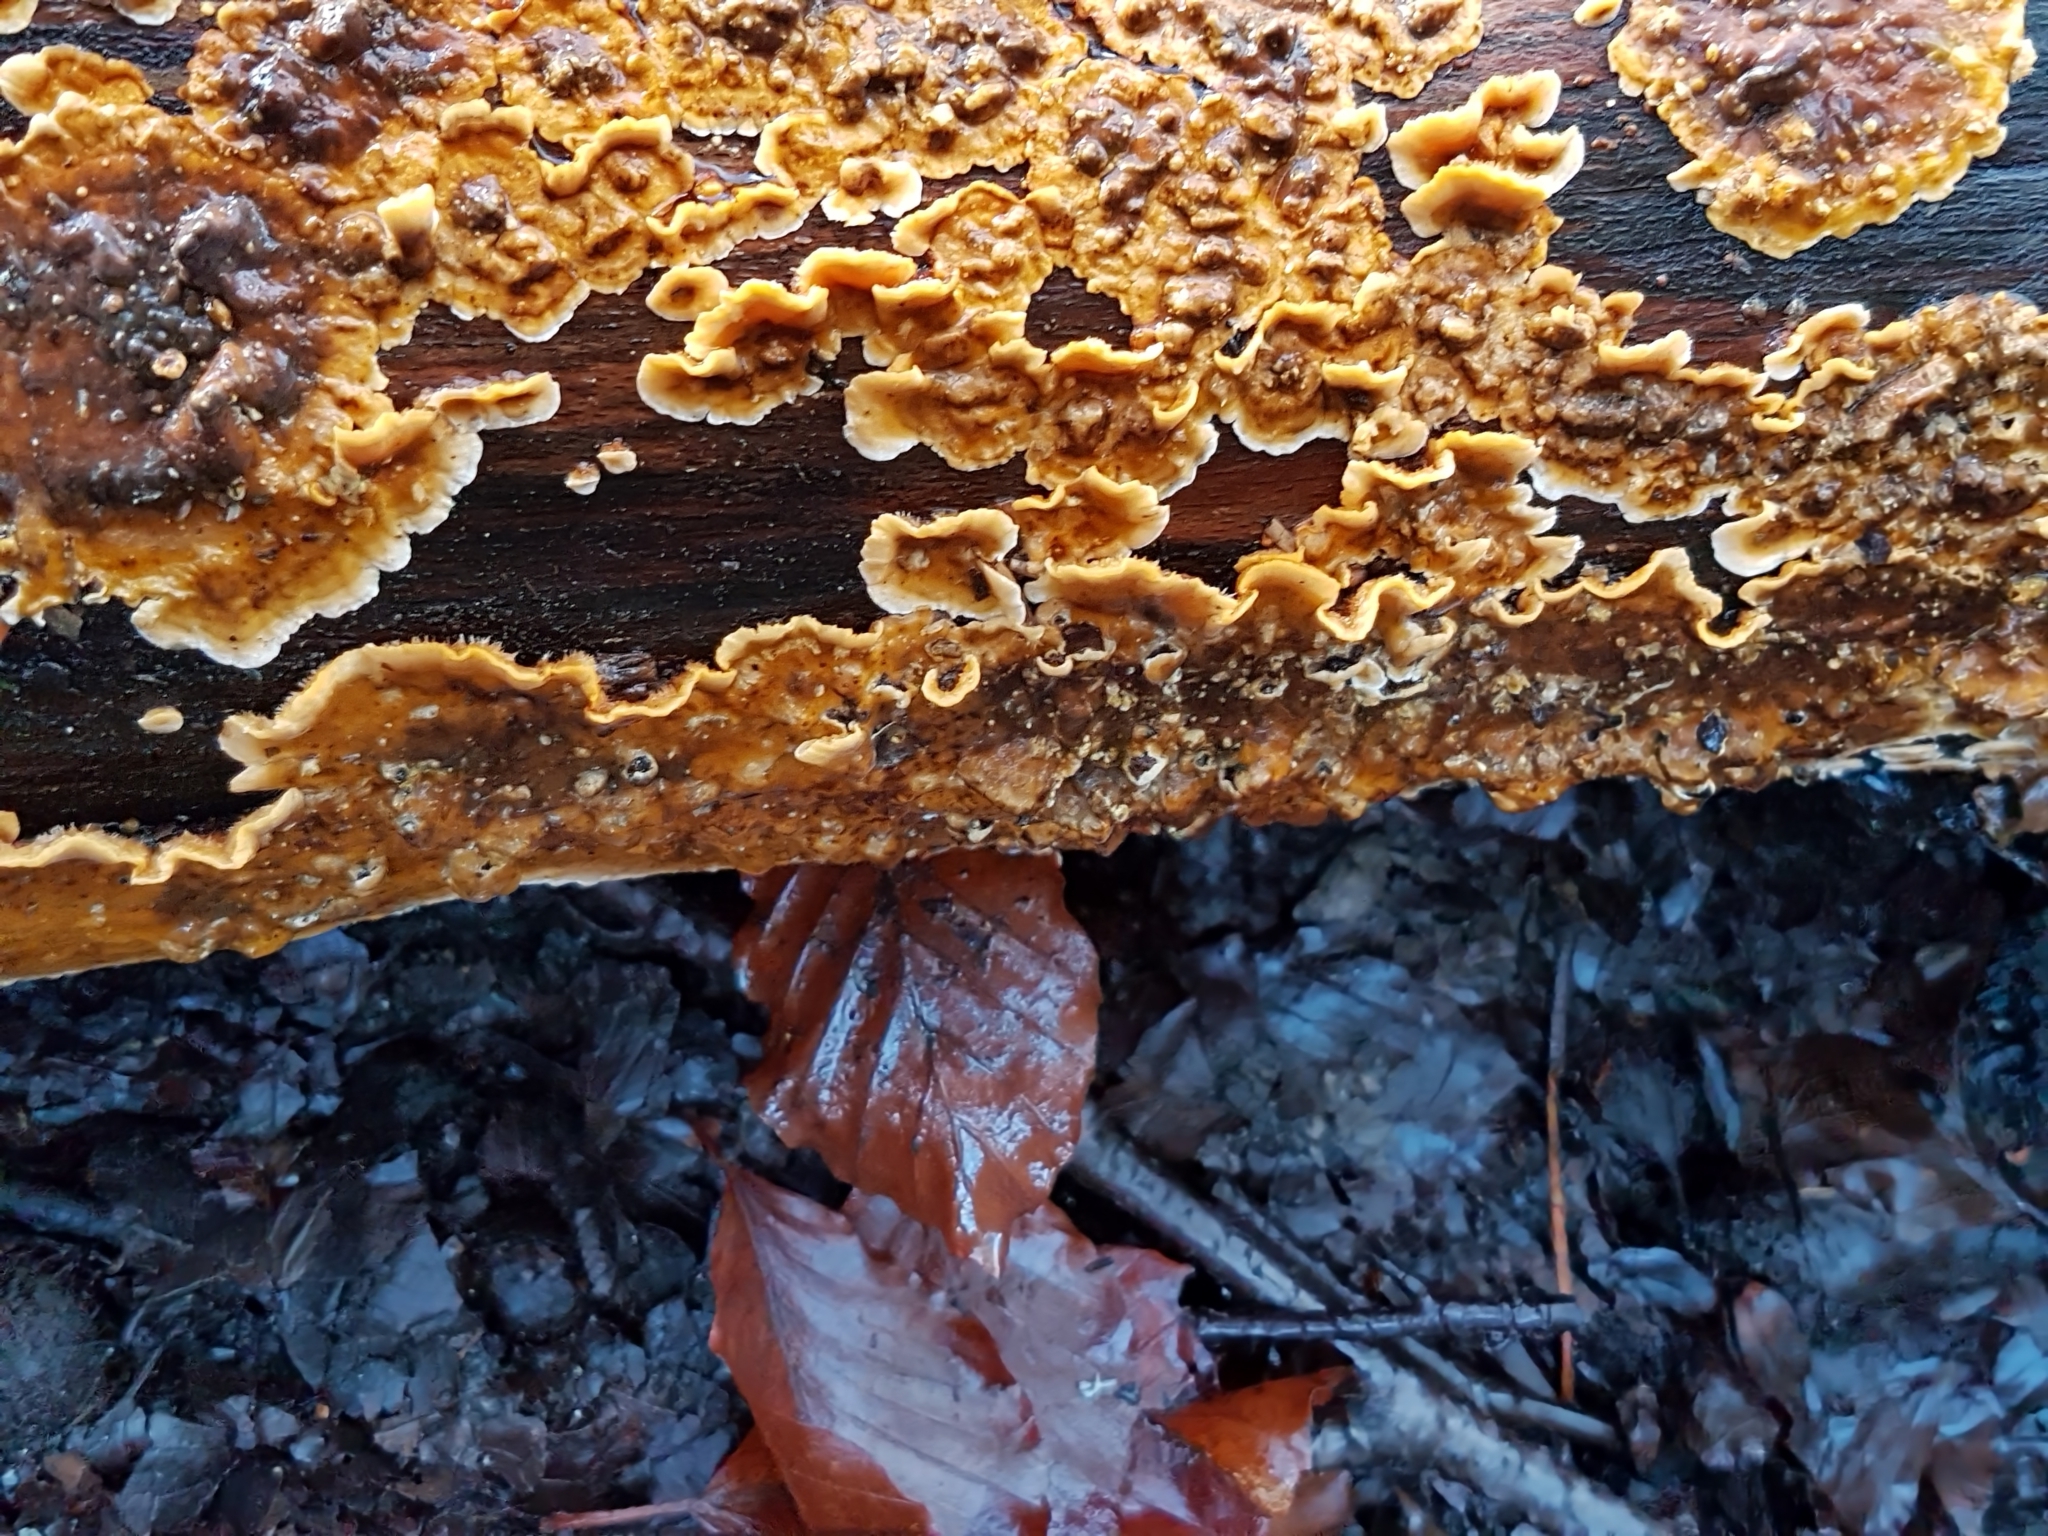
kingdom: Fungi
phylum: Basidiomycota
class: Agaricomycetes
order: Russulales
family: Stereaceae
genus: Stereum
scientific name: Stereum hirsutum
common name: Hairy curtain crust
